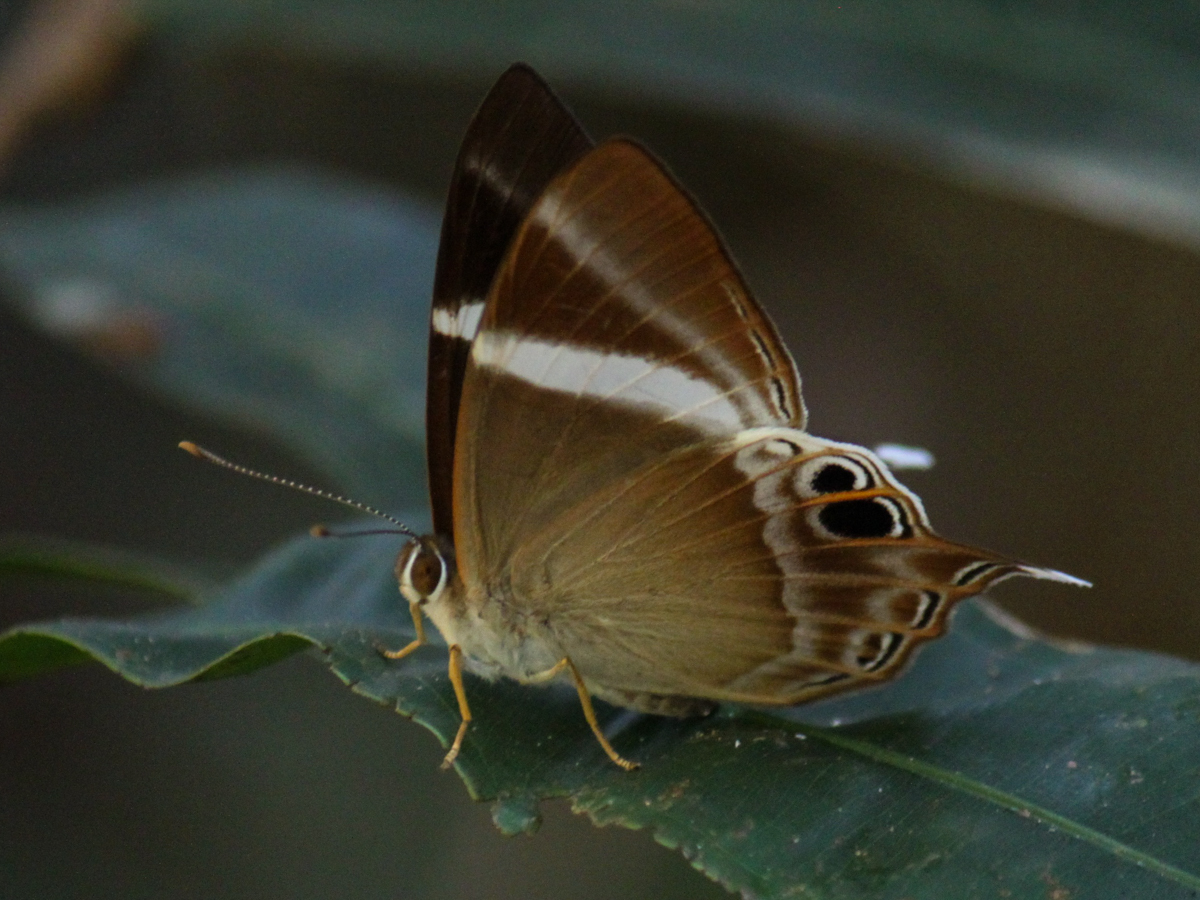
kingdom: Animalia
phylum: Arthropoda
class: Insecta
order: Lepidoptera
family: Lycaenidae
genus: Abisara
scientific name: Abisara neophron
